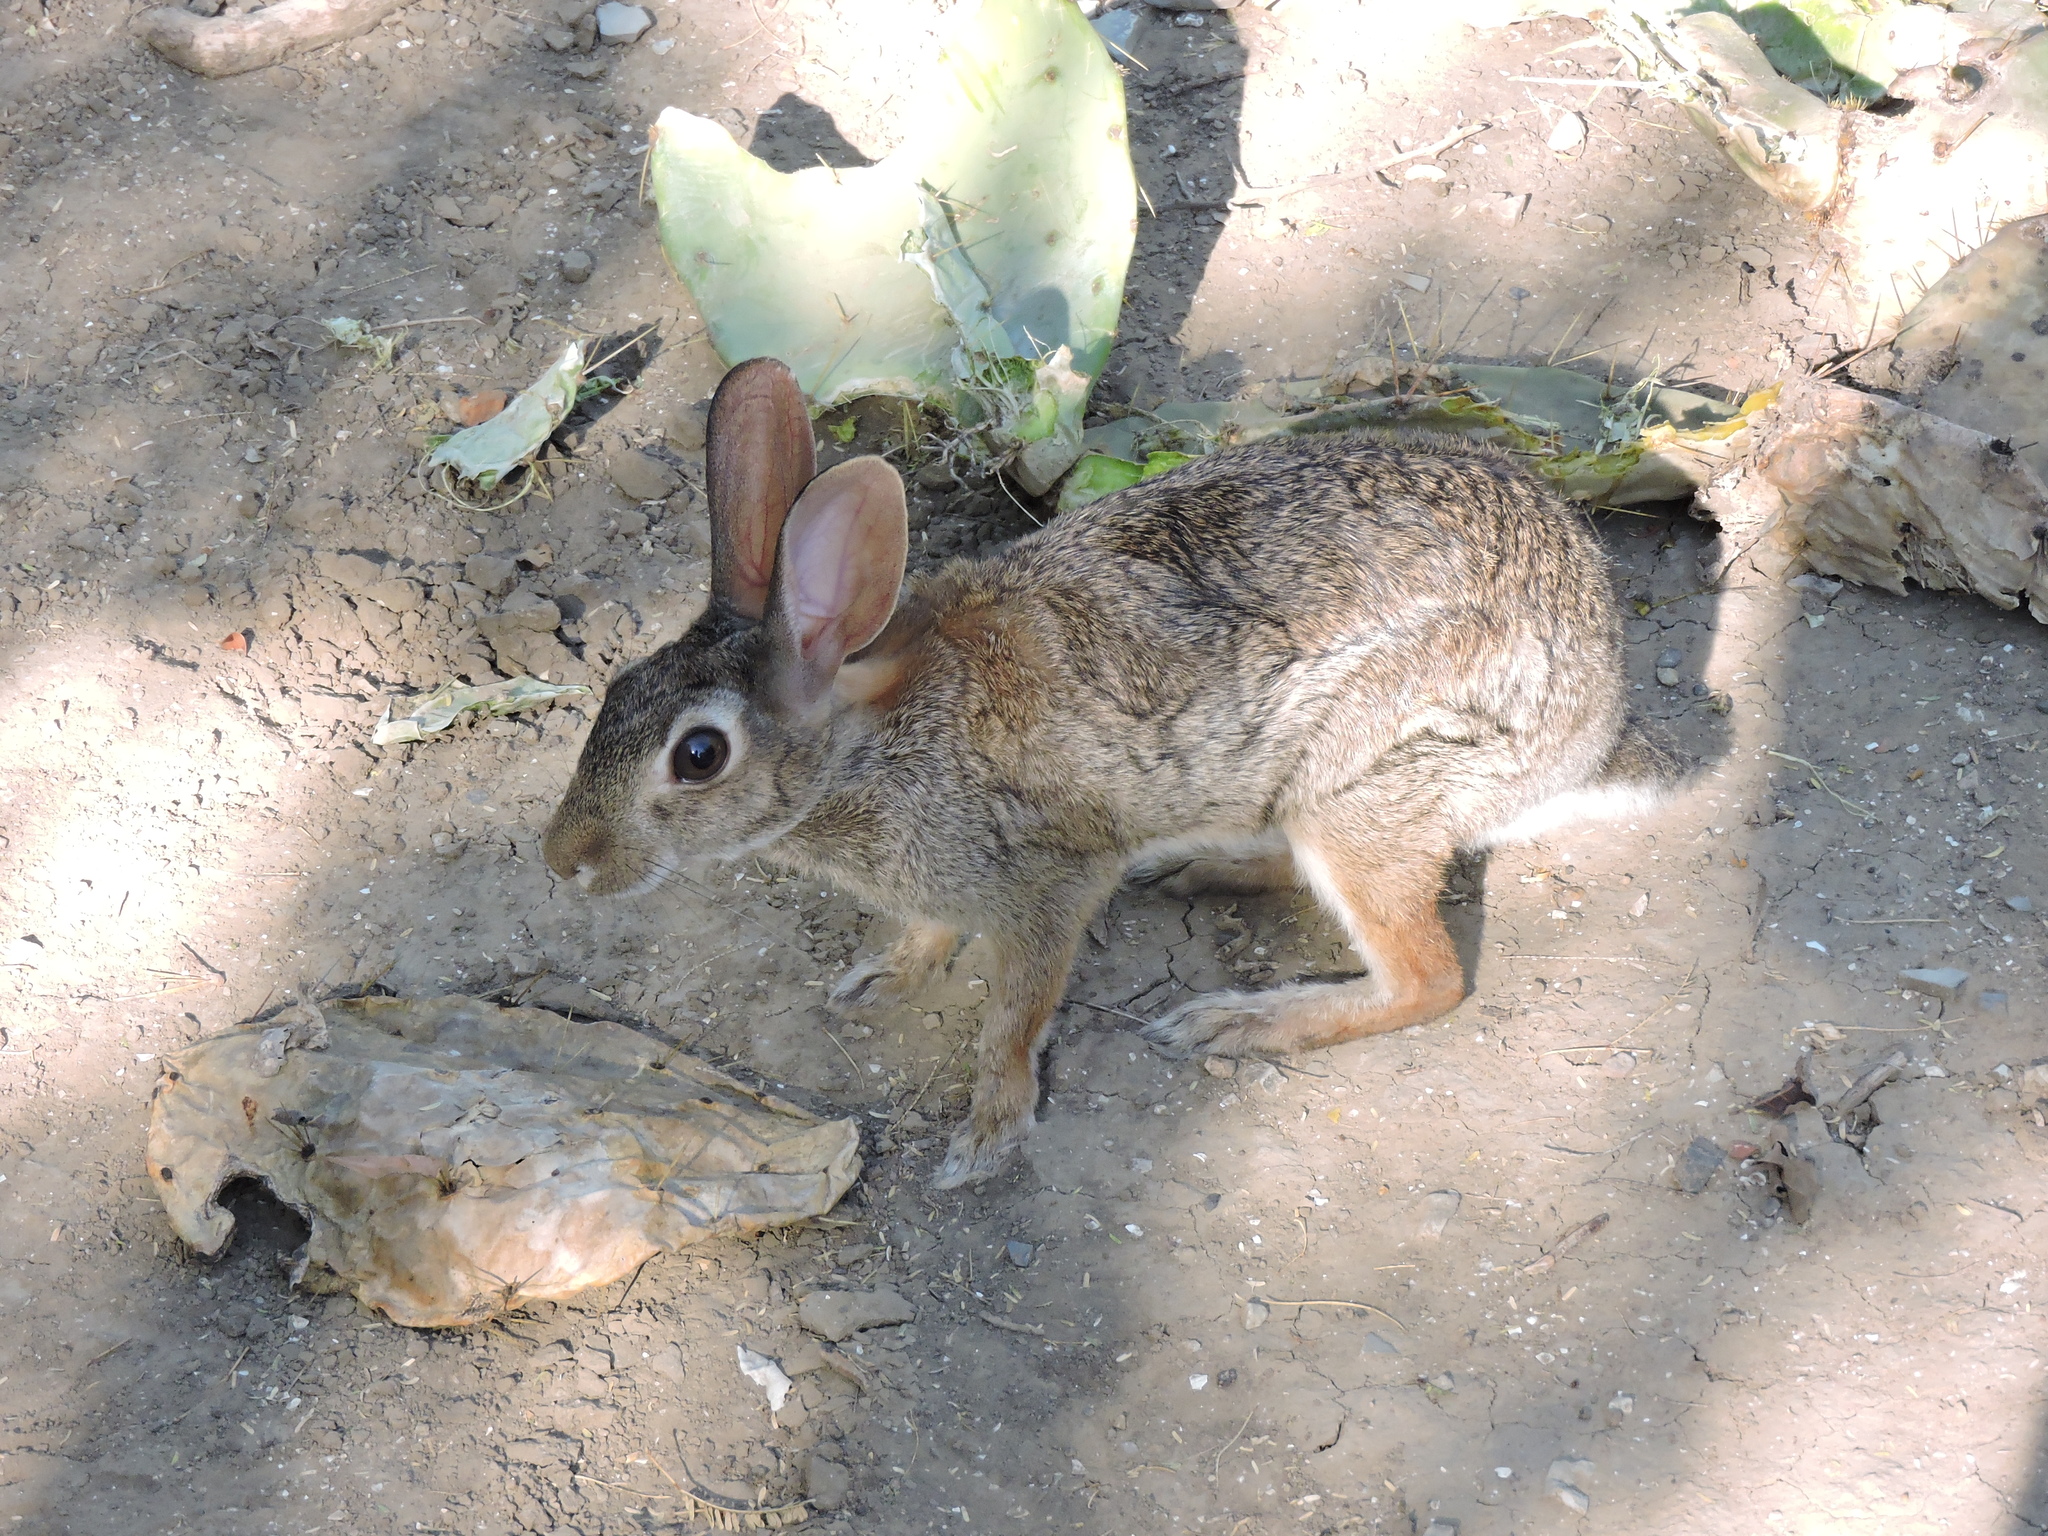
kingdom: Animalia
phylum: Chordata
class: Mammalia
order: Lagomorpha
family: Leporidae
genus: Sylvilagus
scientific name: Sylvilagus floridanus
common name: Eastern cottontail
